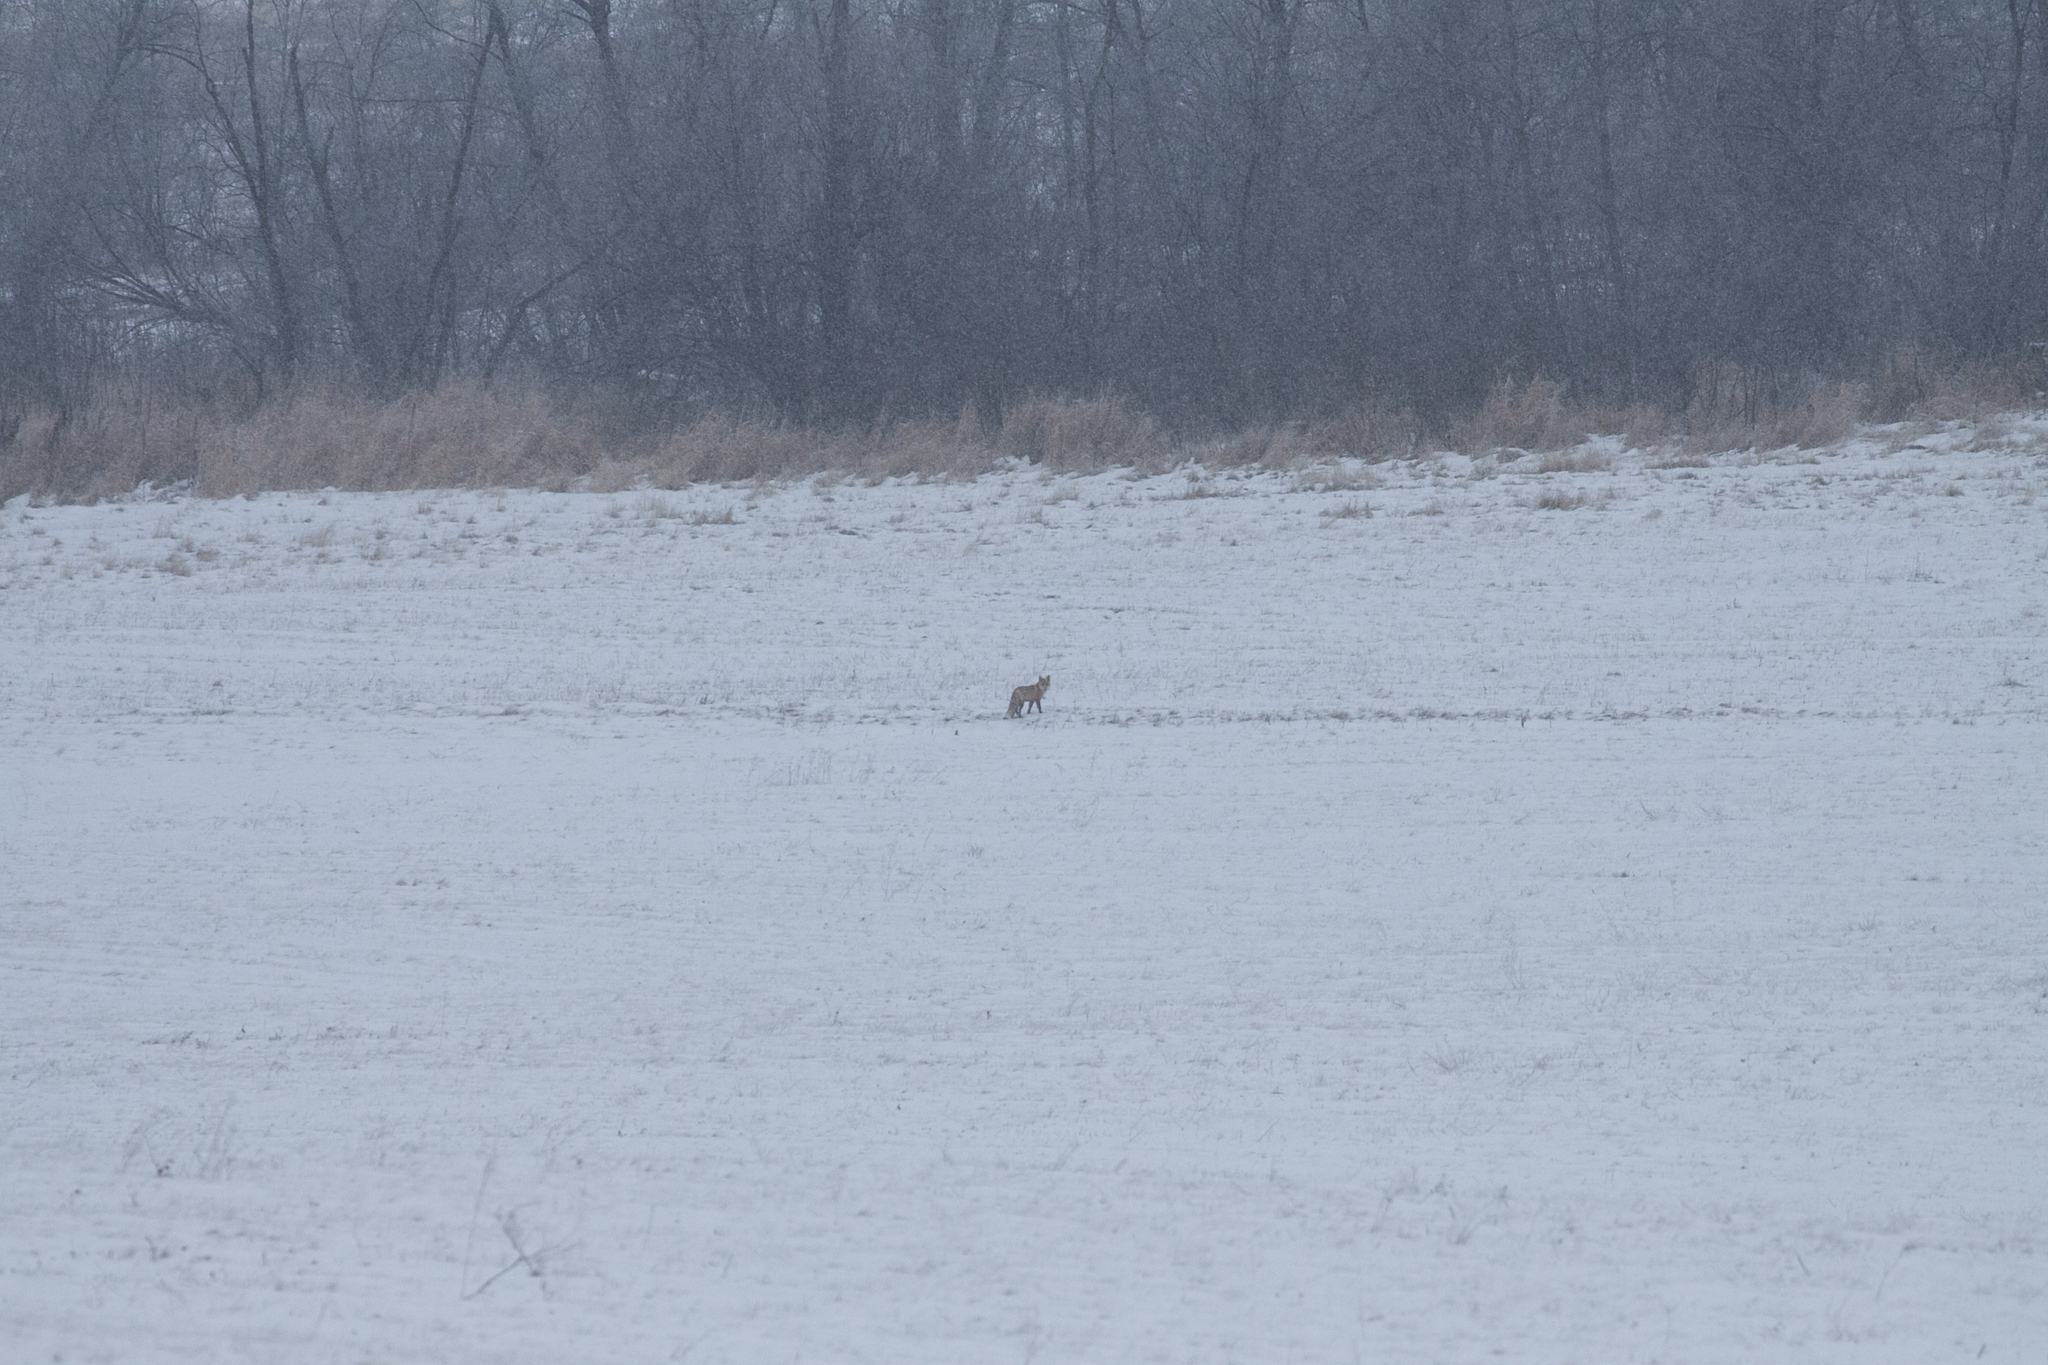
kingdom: Animalia
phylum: Chordata
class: Mammalia
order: Carnivora
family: Canidae
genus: Vulpes
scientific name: Vulpes vulpes
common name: Red fox
